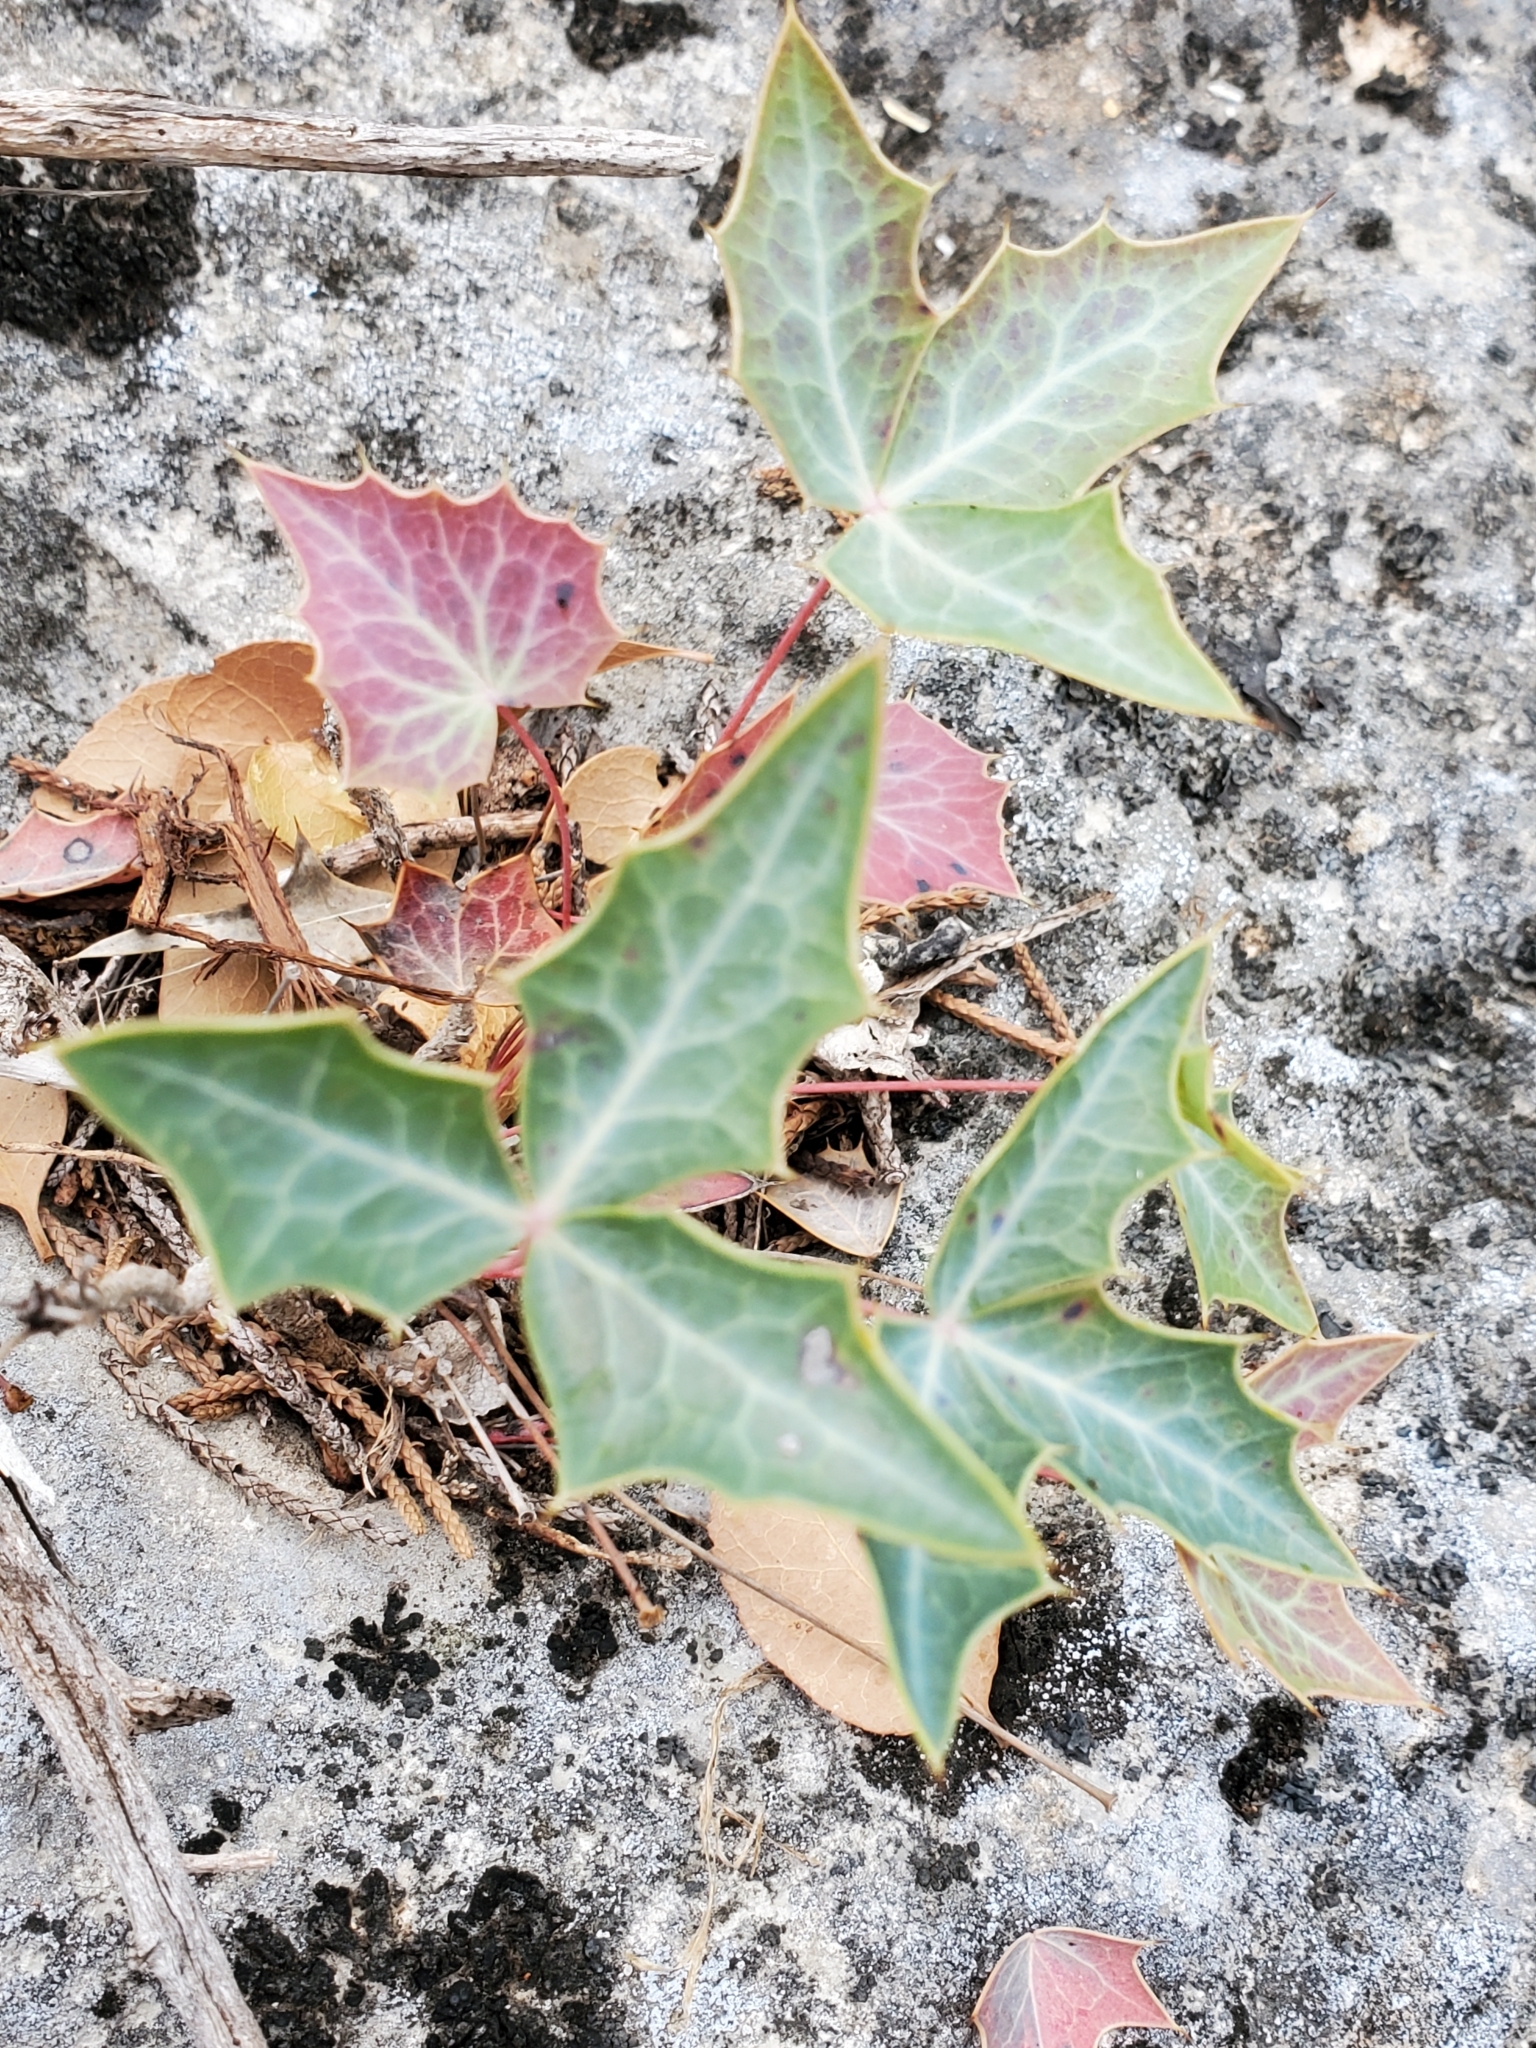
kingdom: Plantae
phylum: Tracheophyta
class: Magnoliopsida
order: Ranunculales
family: Berberidaceae
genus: Alloberberis
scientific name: Alloberberis trifoliolata
